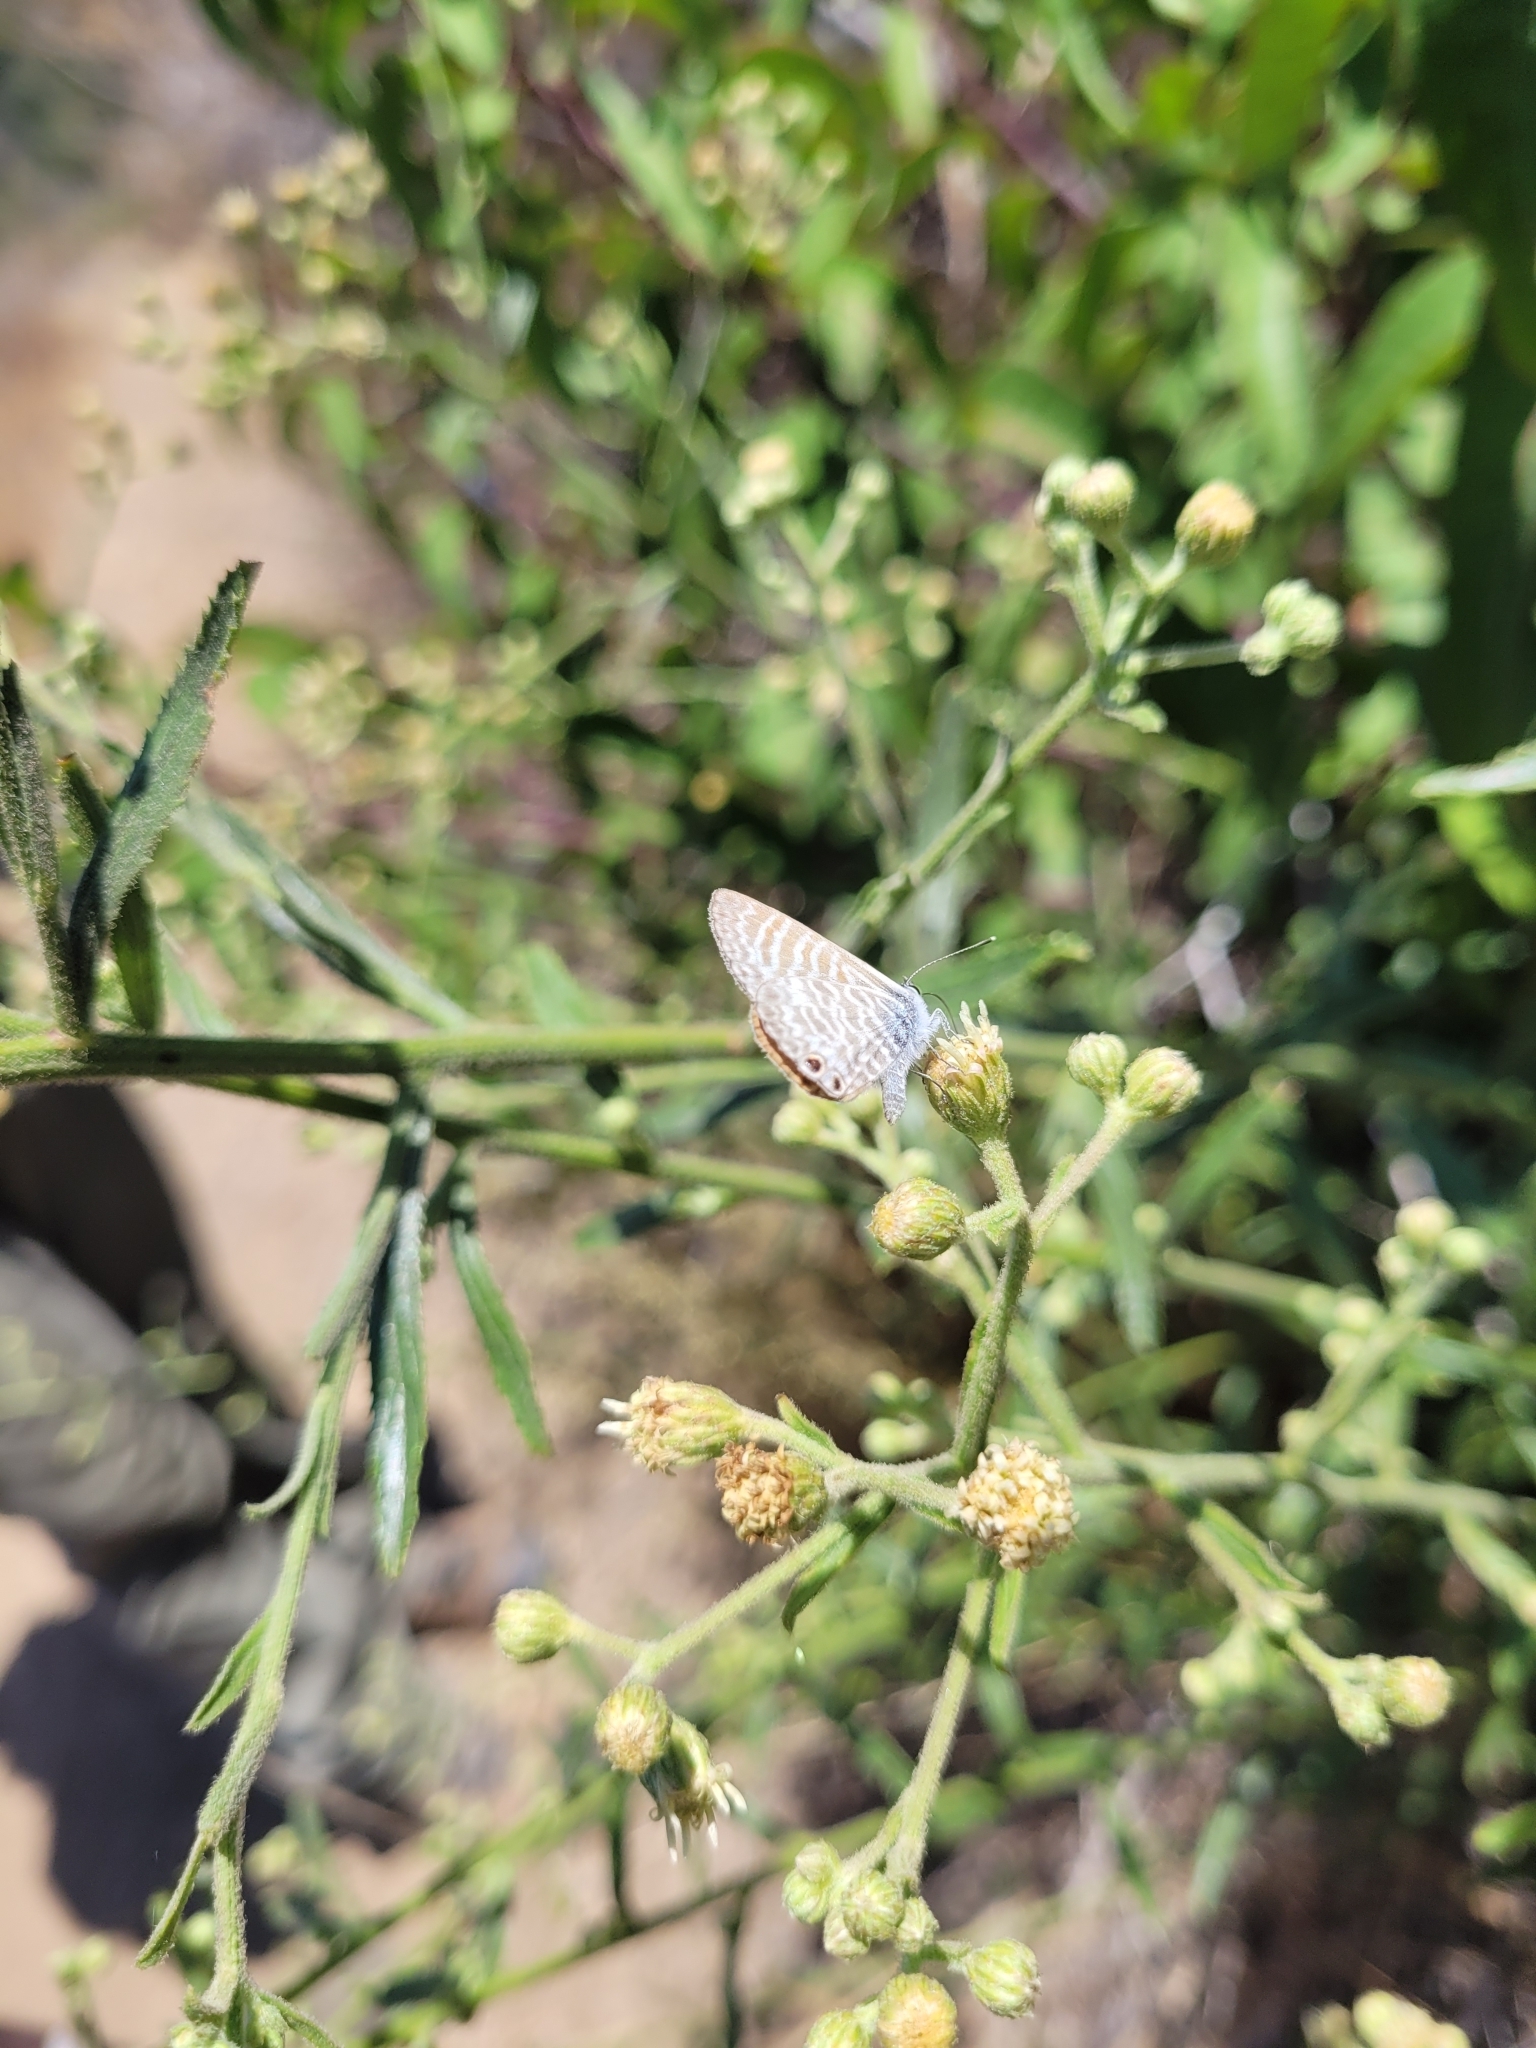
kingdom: Animalia
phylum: Arthropoda
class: Insecta
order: Lepidoptera
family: Lycaenidae
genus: Leptotes
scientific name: Leptotes marina
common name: Marine blue
